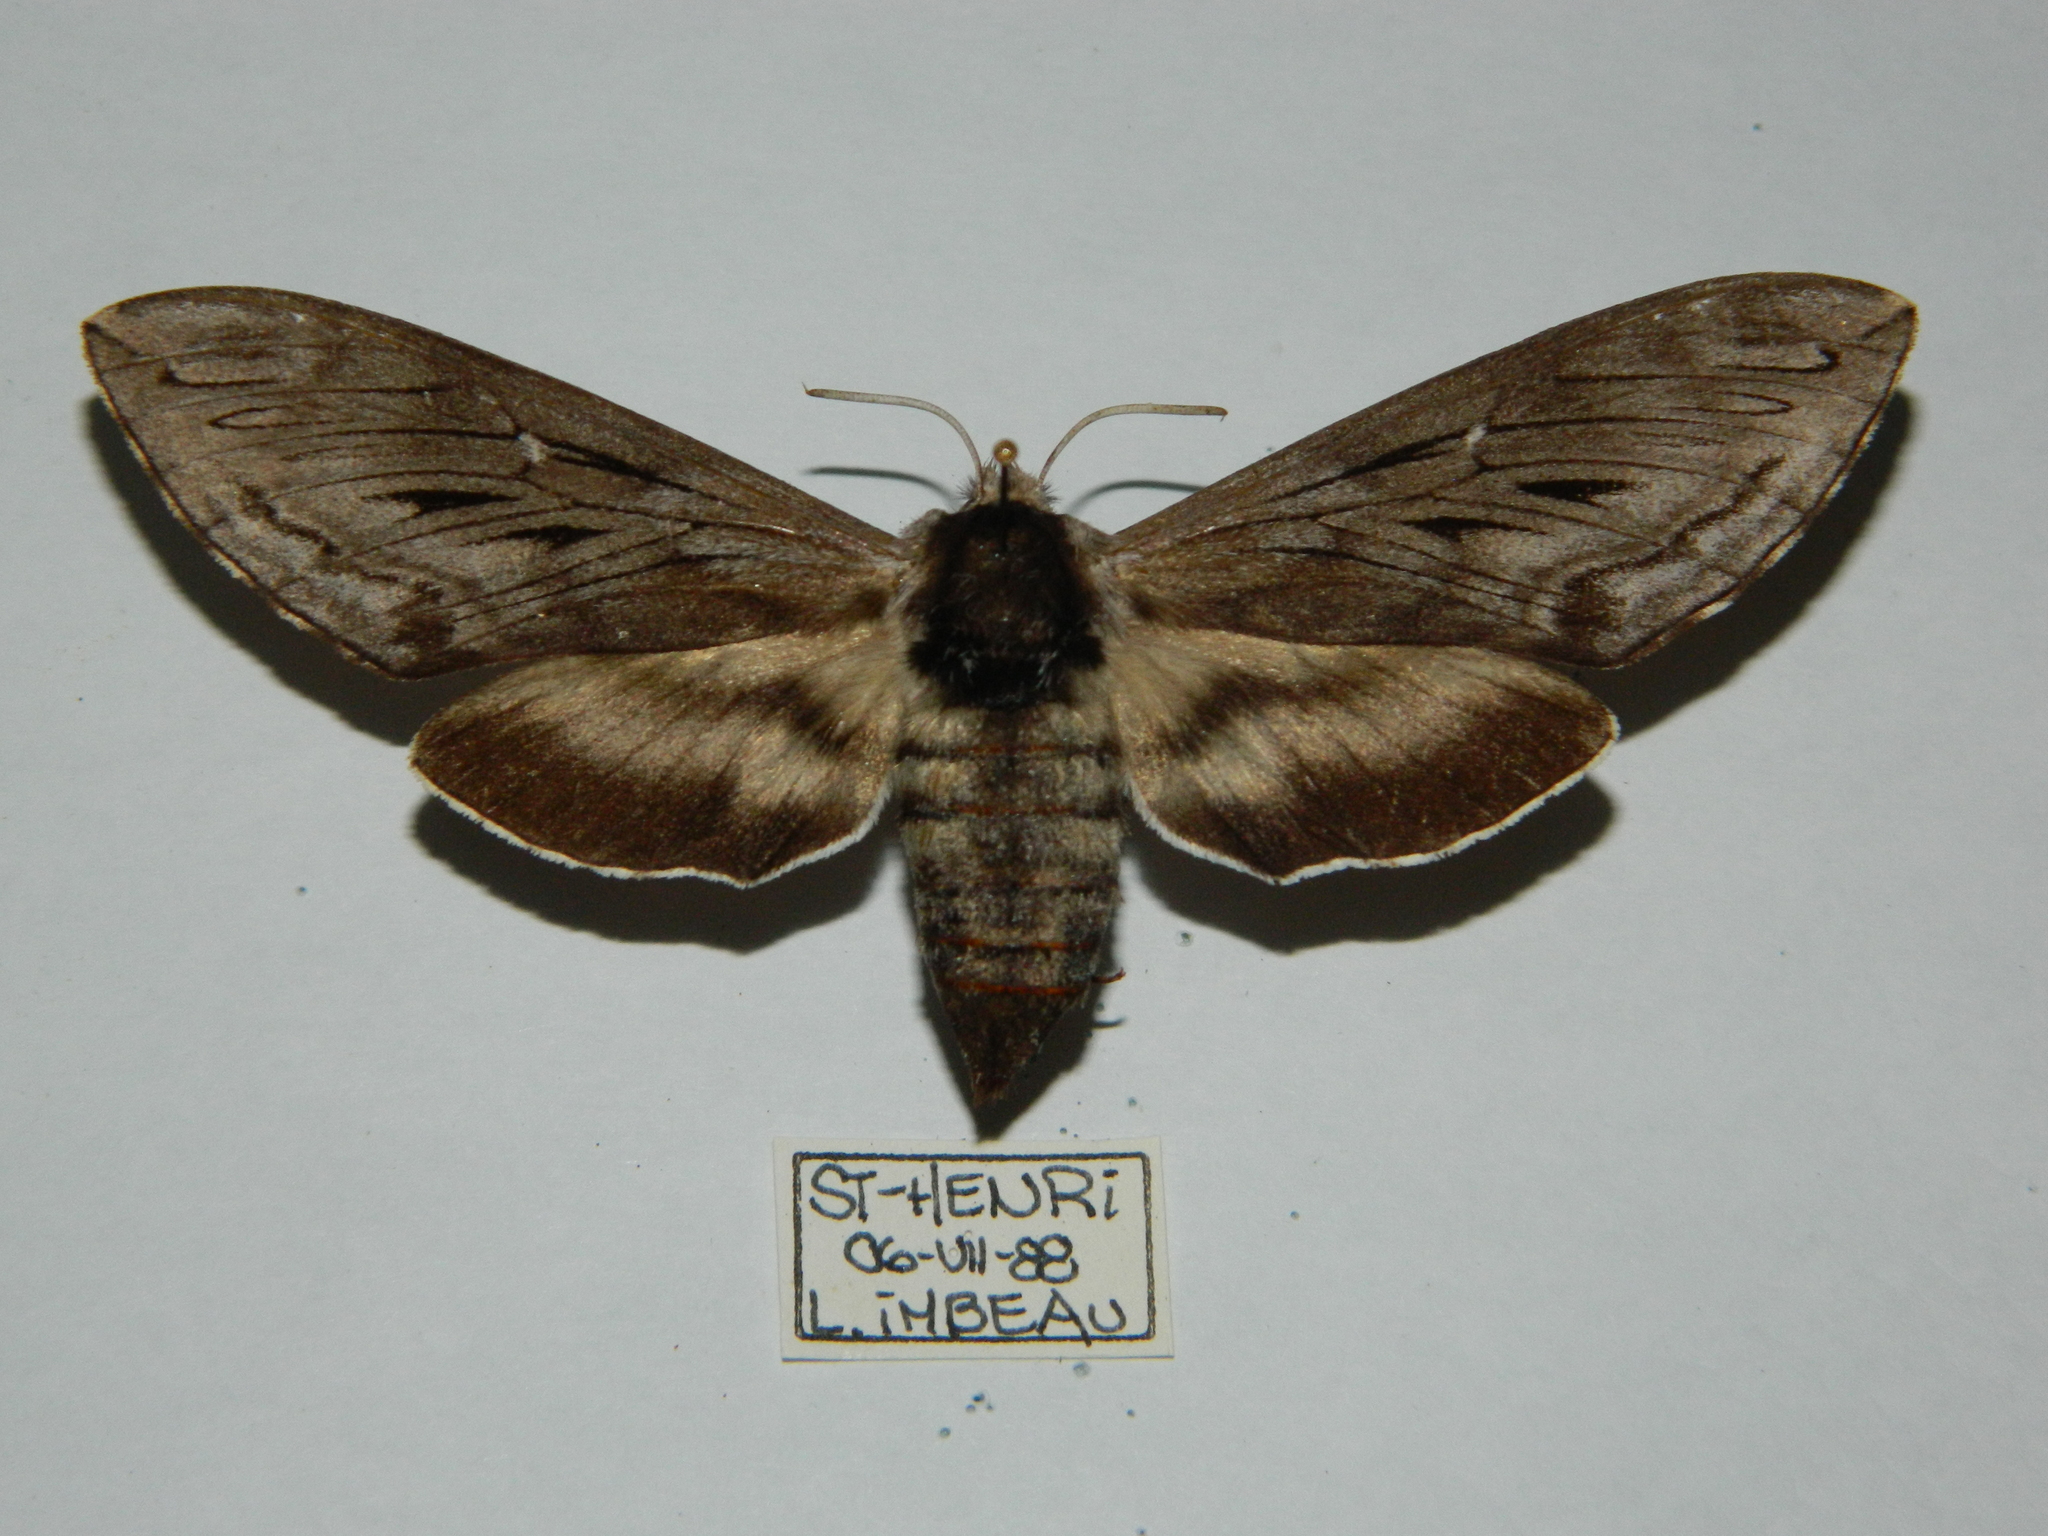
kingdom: Animalia
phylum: Arthropoda
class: Insecta
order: Lepidoptera
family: Sphingidae
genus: Sphinx
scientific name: Sphinx poecila
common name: Northern apple sphinx
